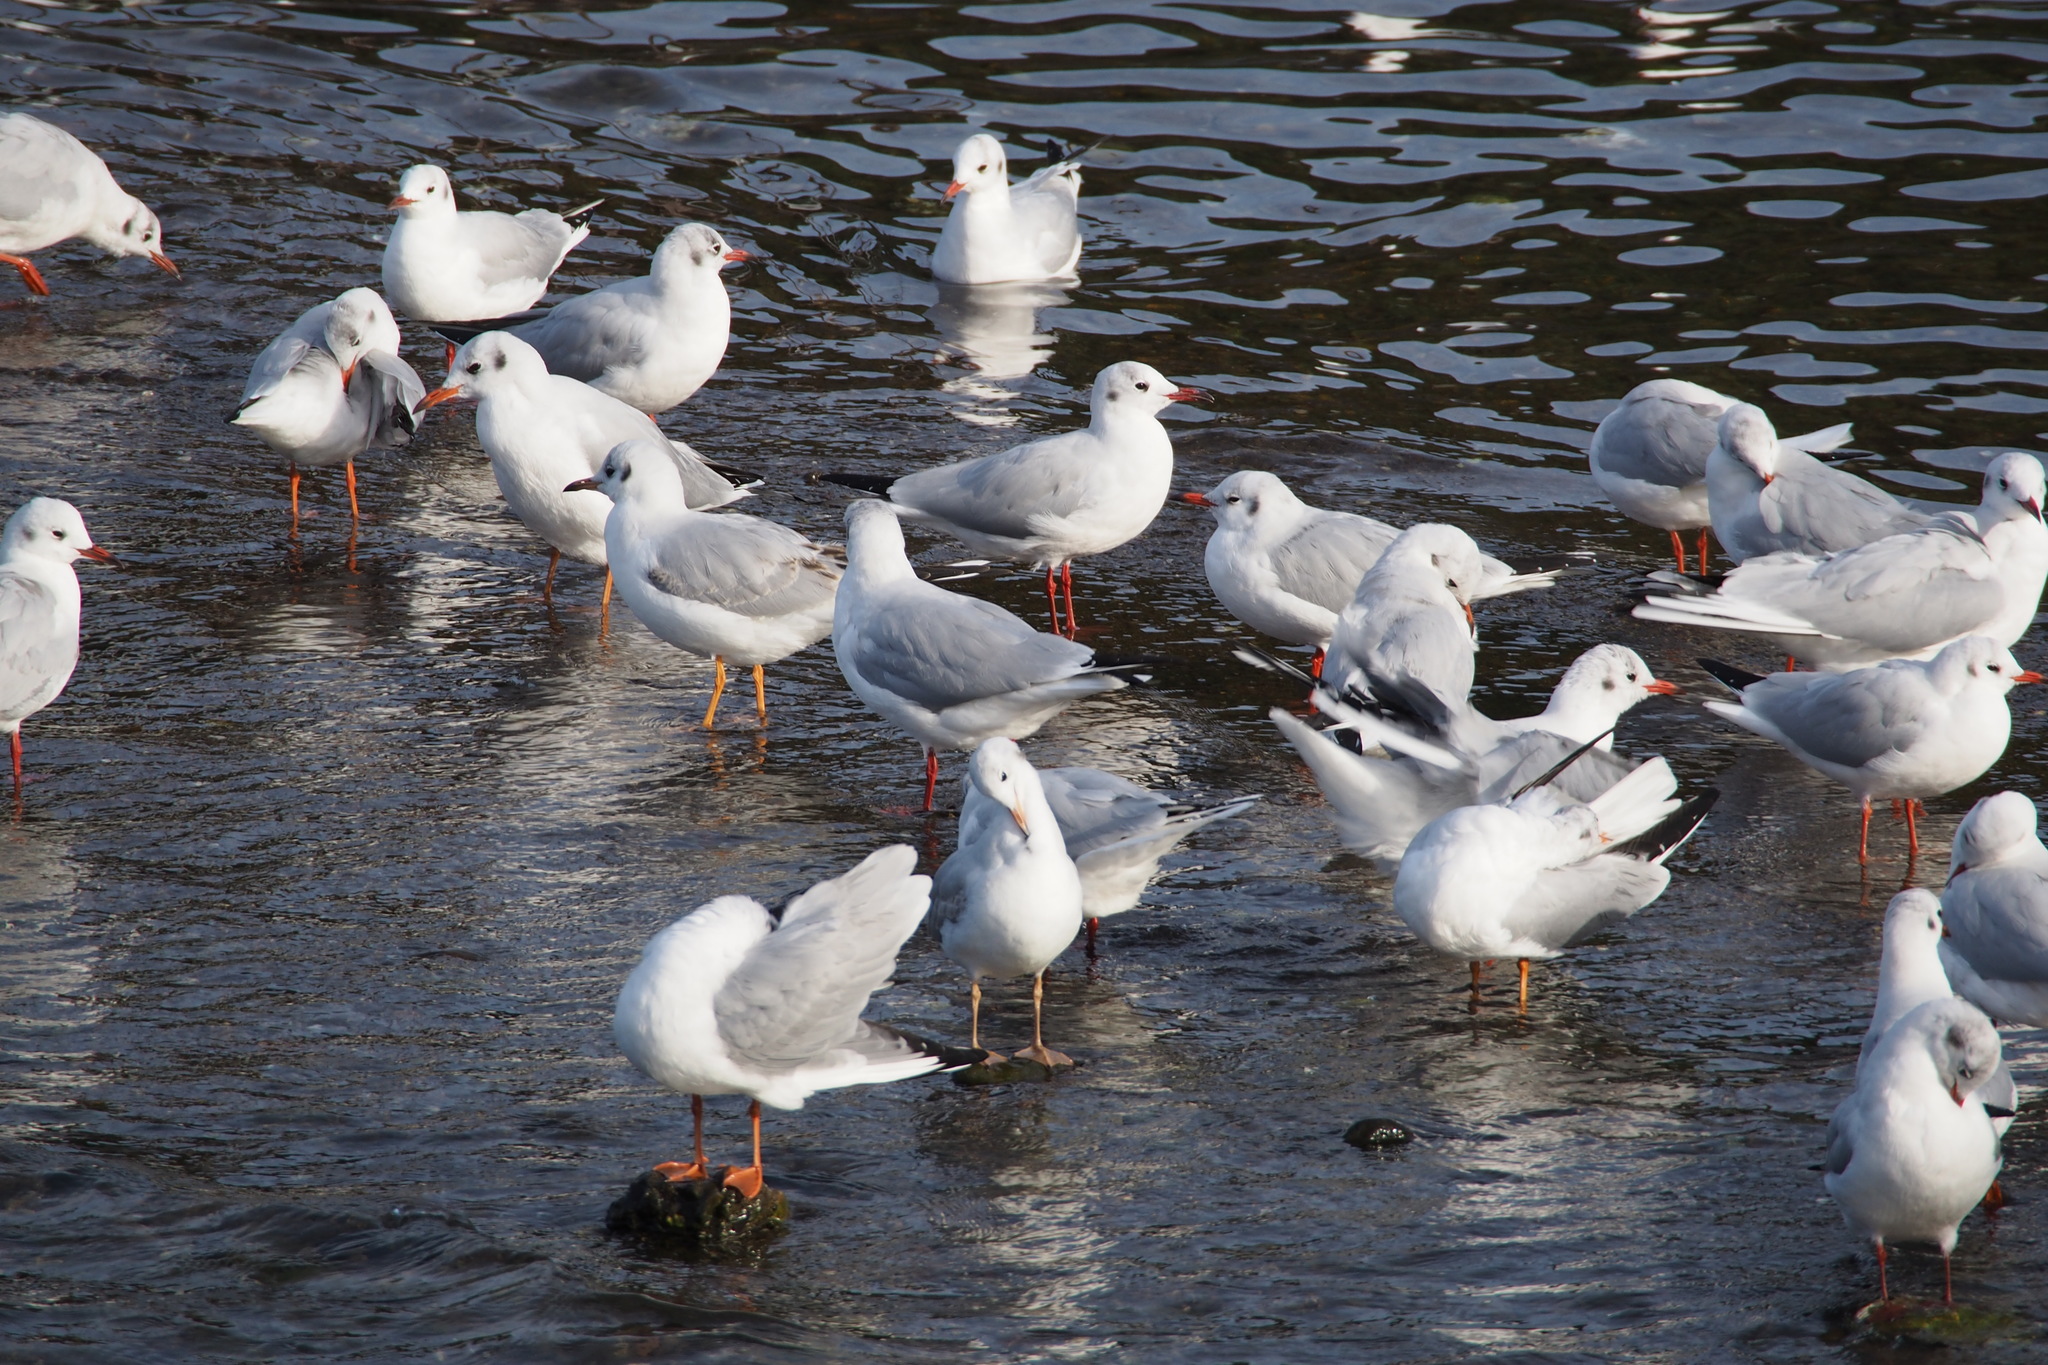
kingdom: Animalia
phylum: Chordata
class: Aves
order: Charadriiformes
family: Laridae
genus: Chroicocephalus
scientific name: Chroicocephalus ridibundus
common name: Black-headed gull
